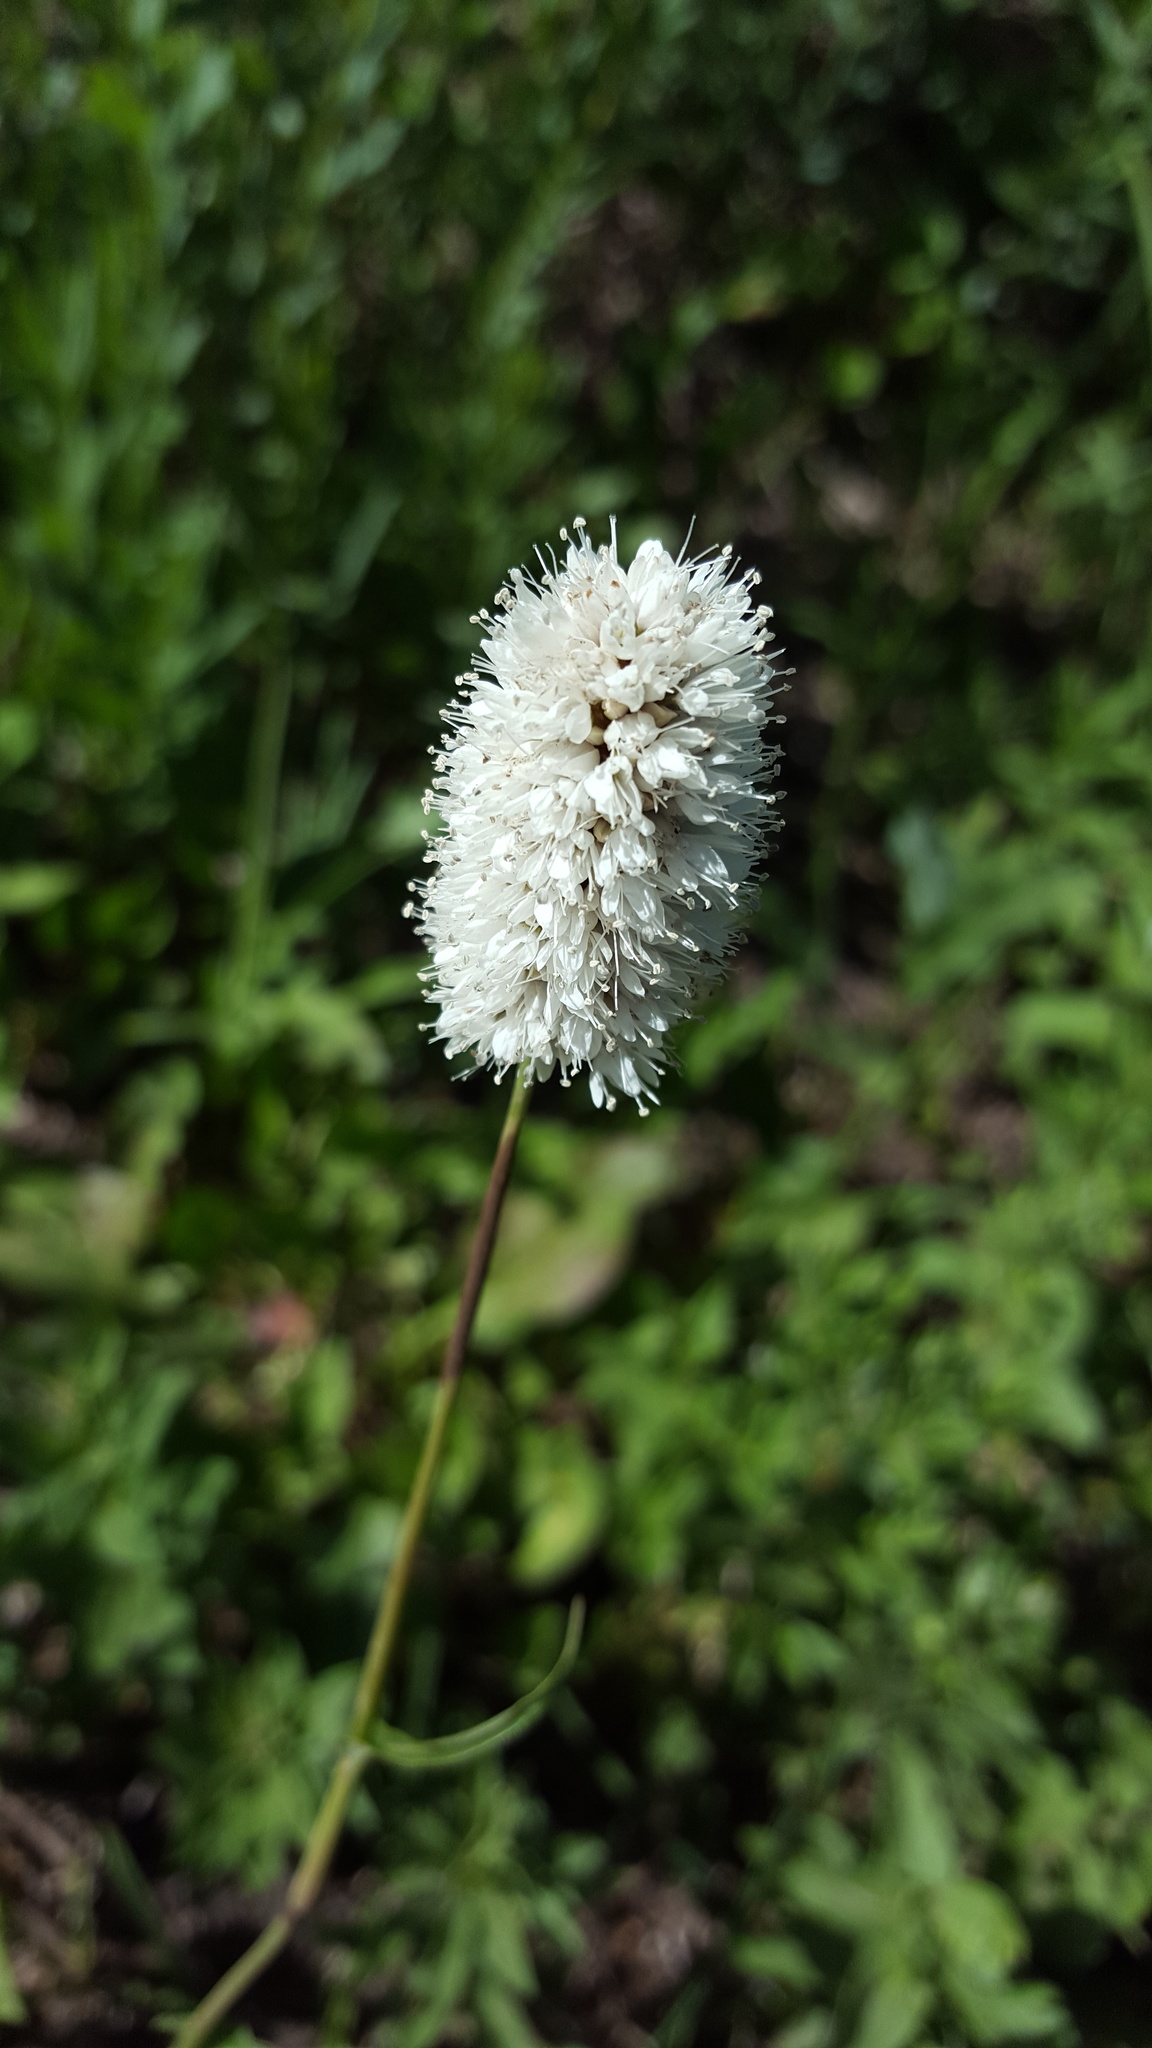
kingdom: Plantae
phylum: Tracheophyta
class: Magnoliopsida
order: Caryophyllales
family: Polygonaceae
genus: Bistorta
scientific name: Bistorta bistortoides
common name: American bistort
